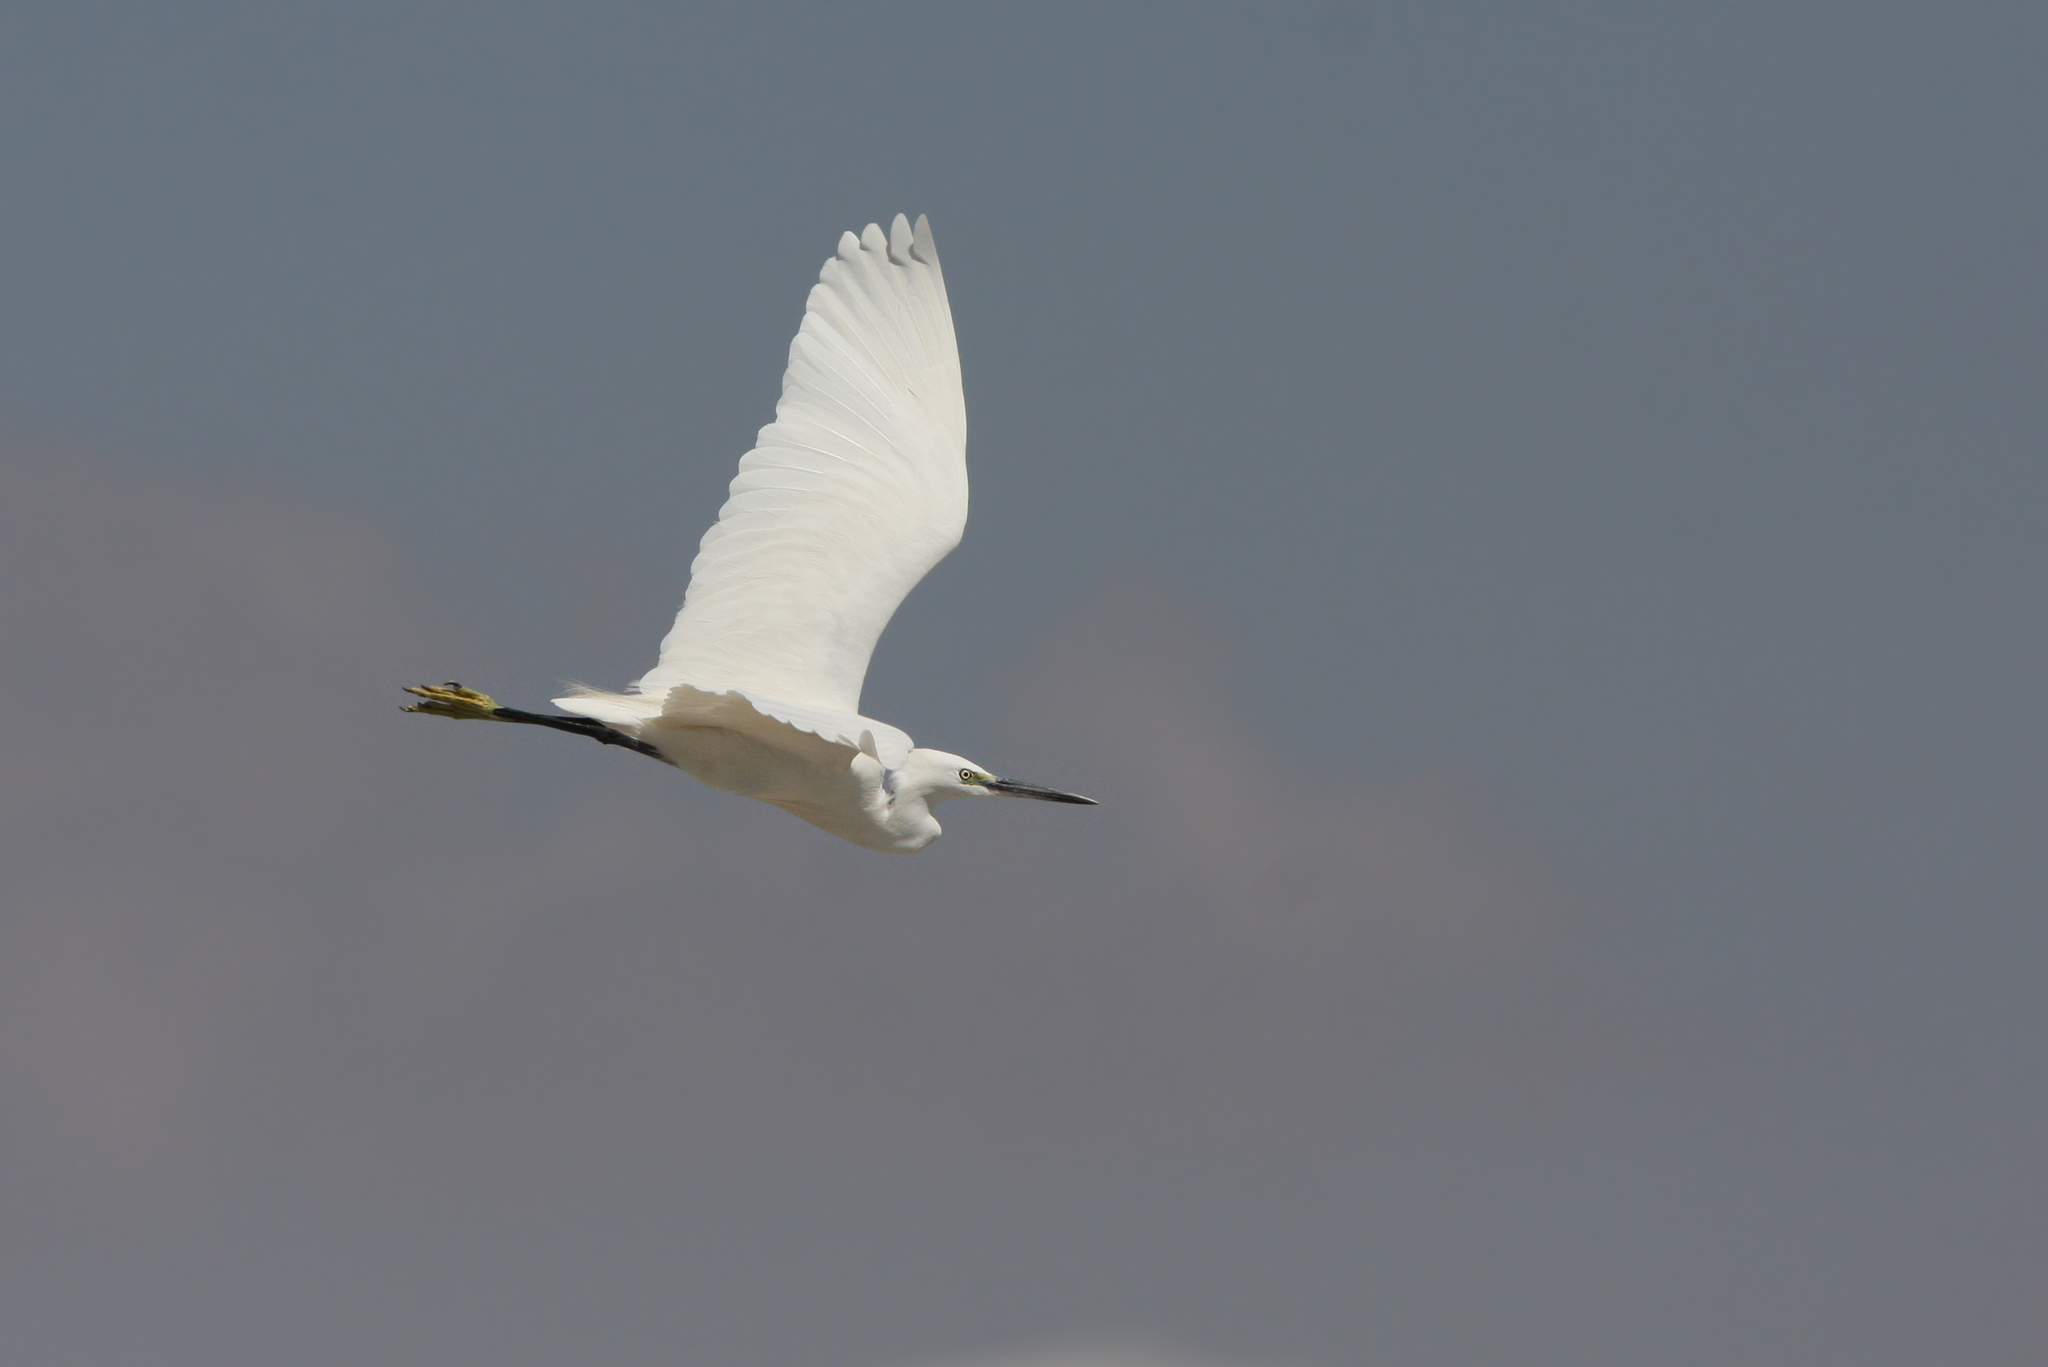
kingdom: Animalia
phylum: Chordata
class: Aves
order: Pelecaniformes
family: Ardeidae
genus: Egretta
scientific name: Egretta garzetta
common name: Little egret
